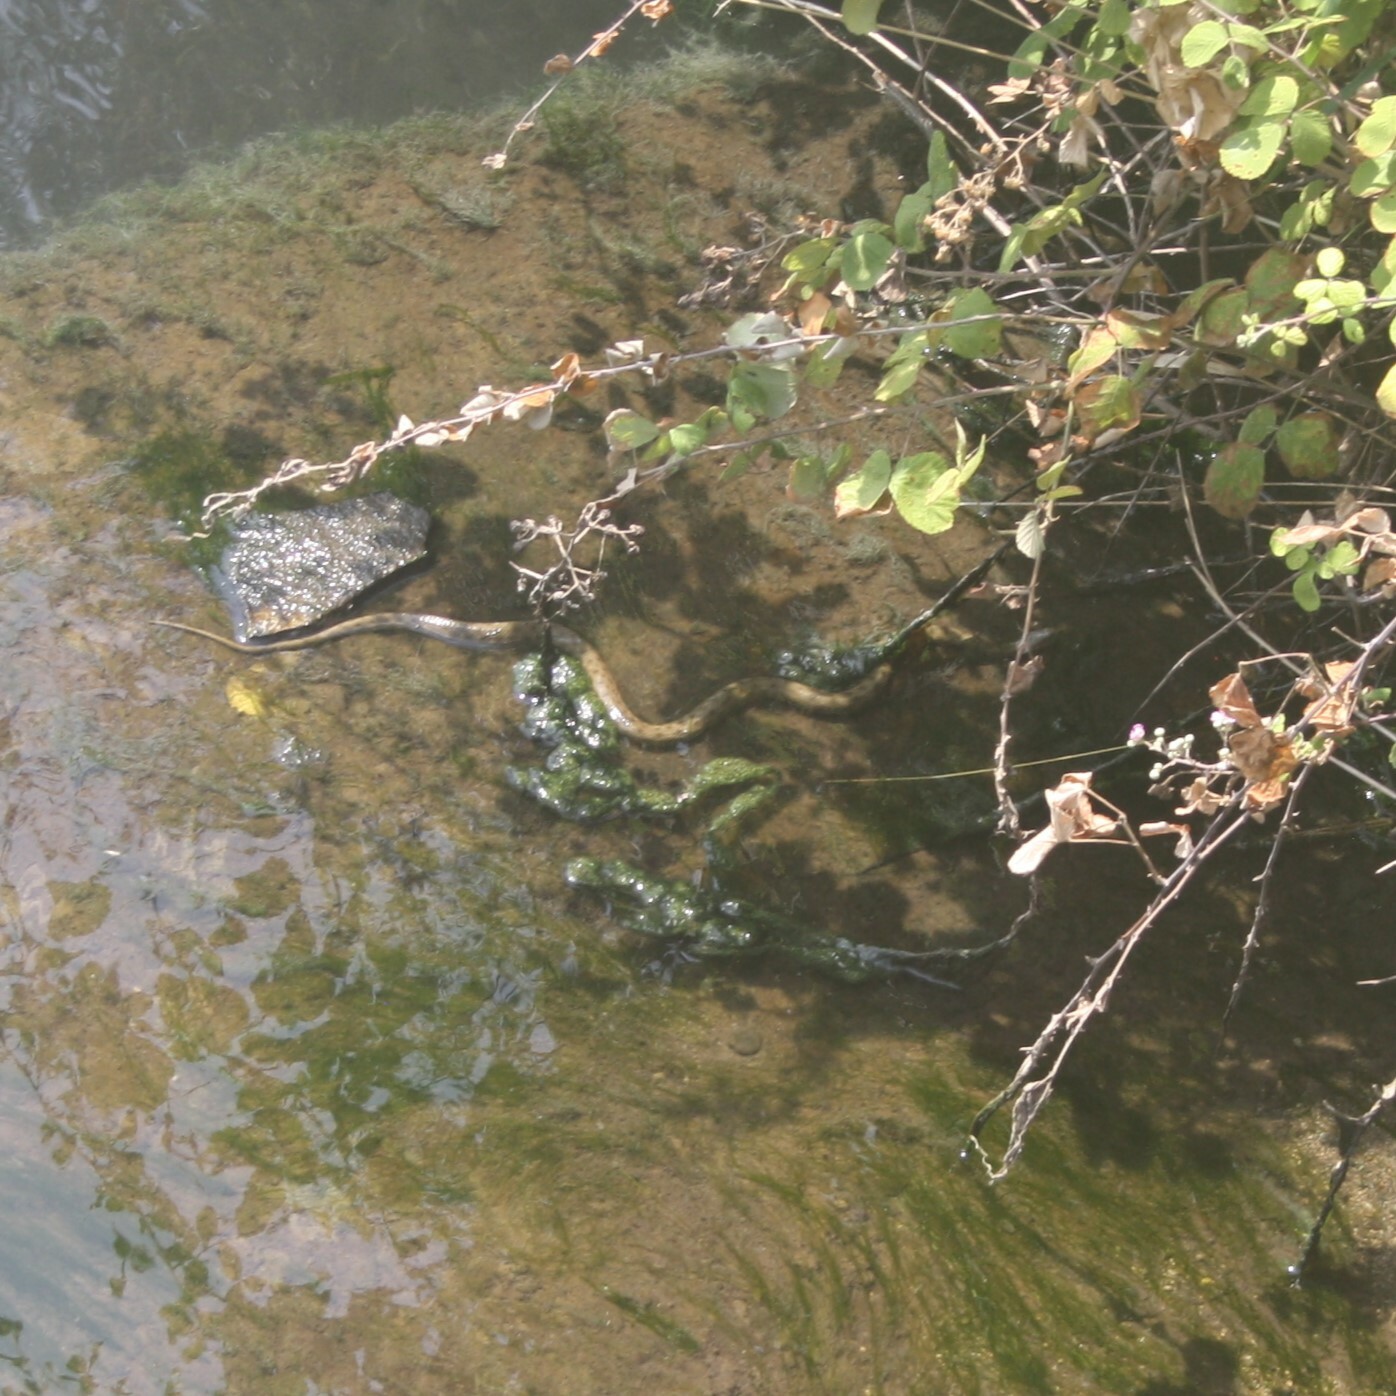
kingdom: Animalia
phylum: Chordata
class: Squamata
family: Colubridae
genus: Natrix
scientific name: Natrix tessellata
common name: Dice snake
